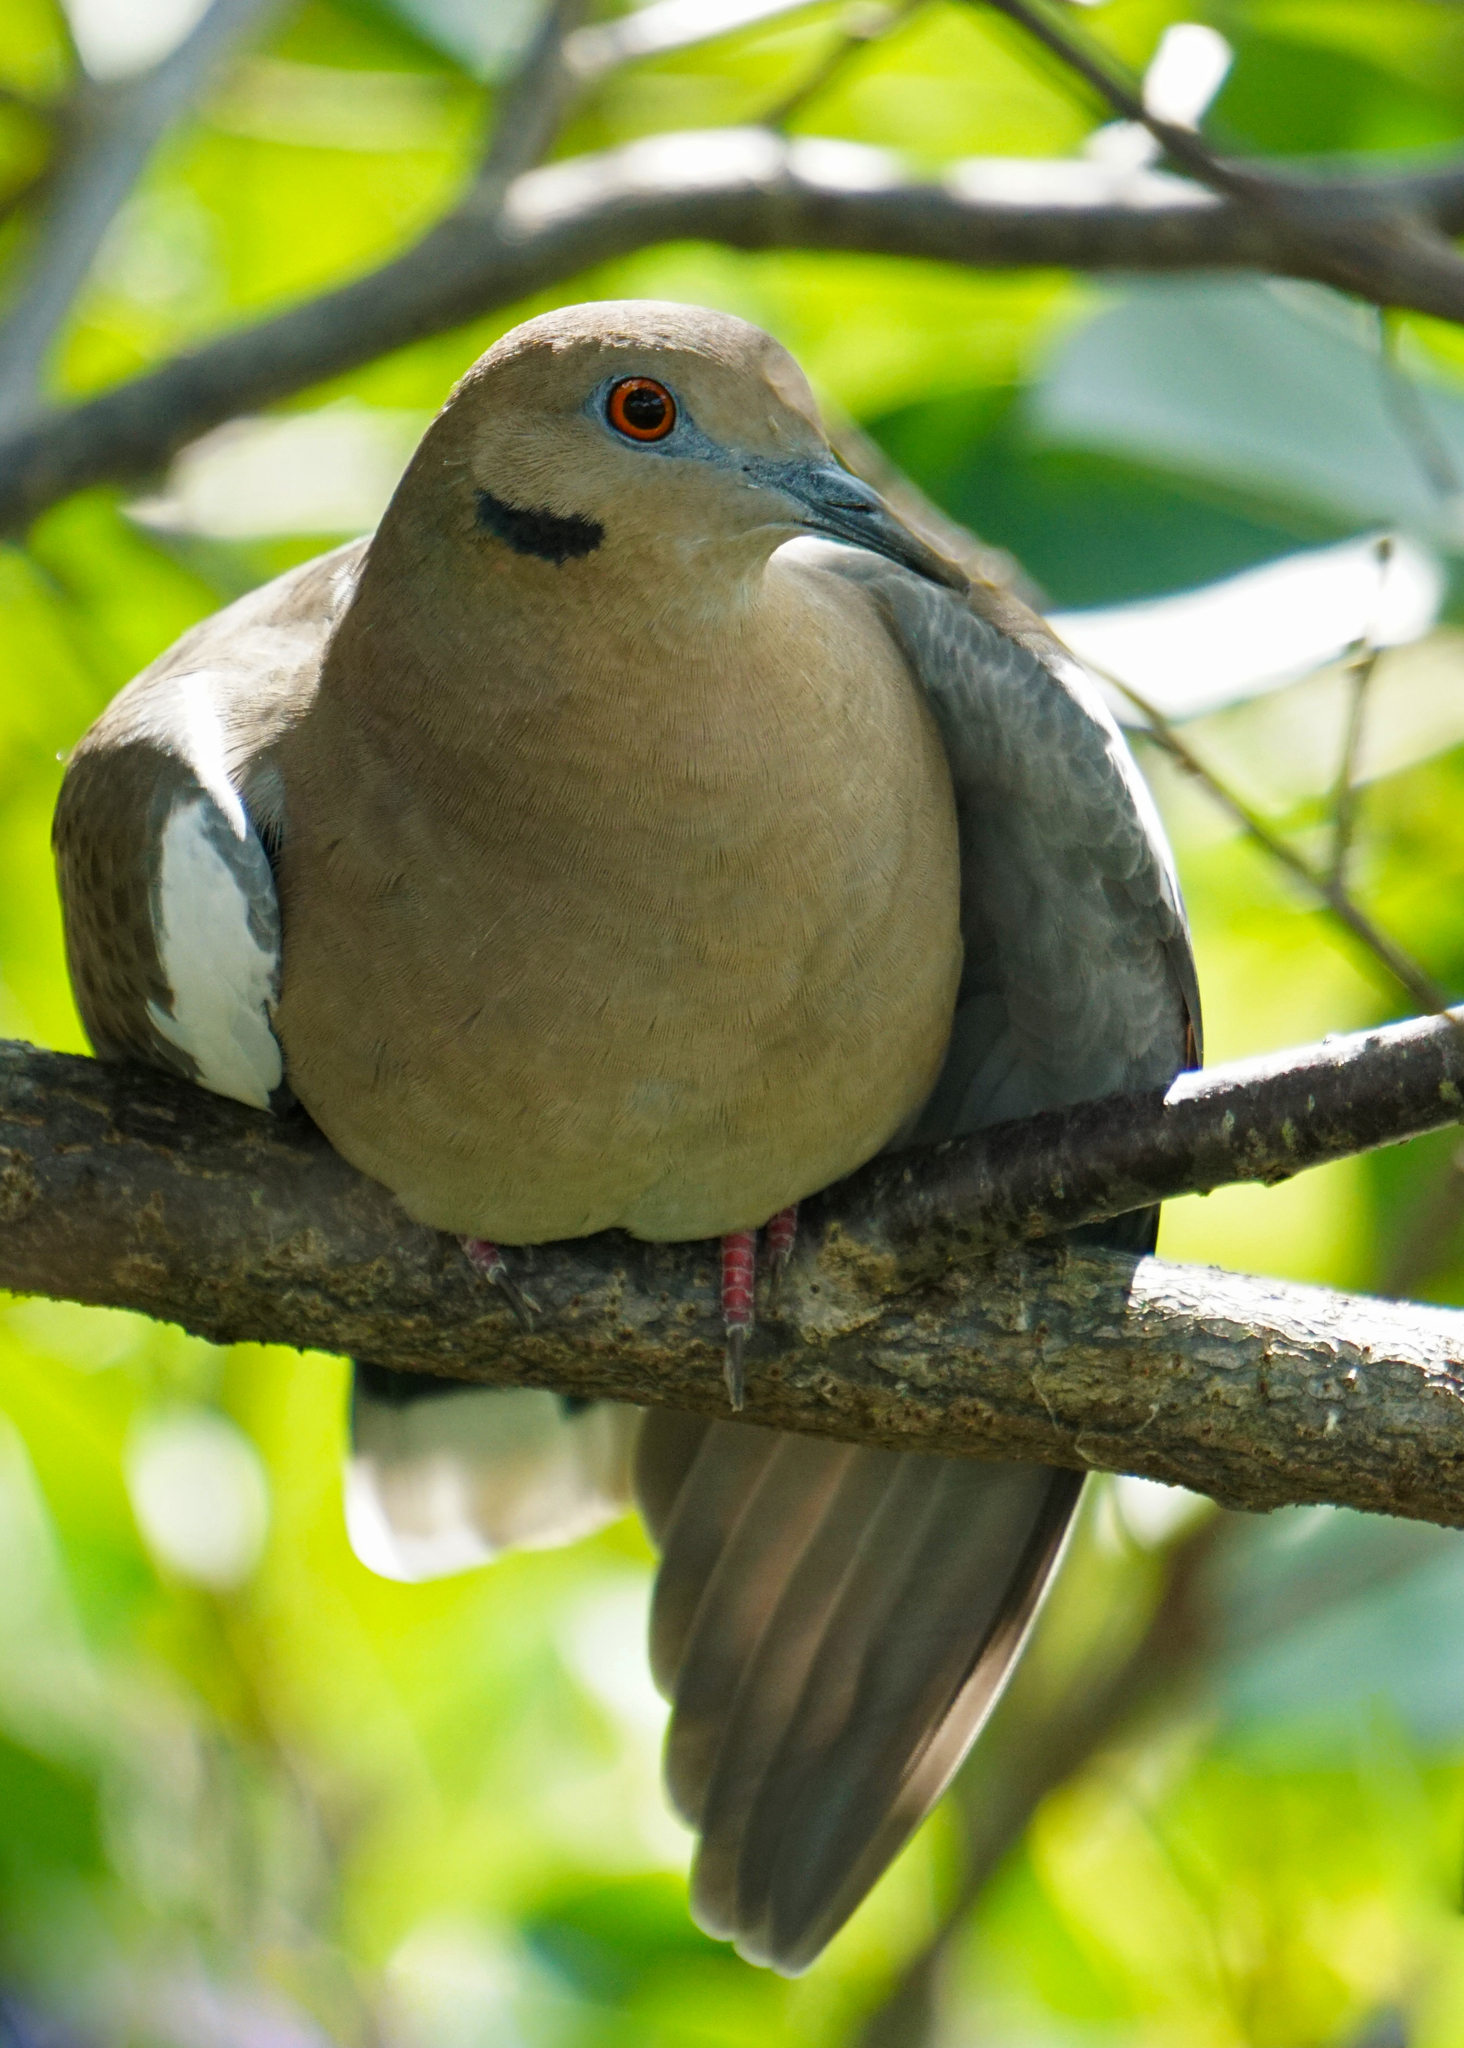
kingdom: Animalia
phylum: Chordata
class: Aves
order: Columbiformes
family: Columbidae
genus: Zenaida
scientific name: Zenaida asiatica
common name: White-winged dove
